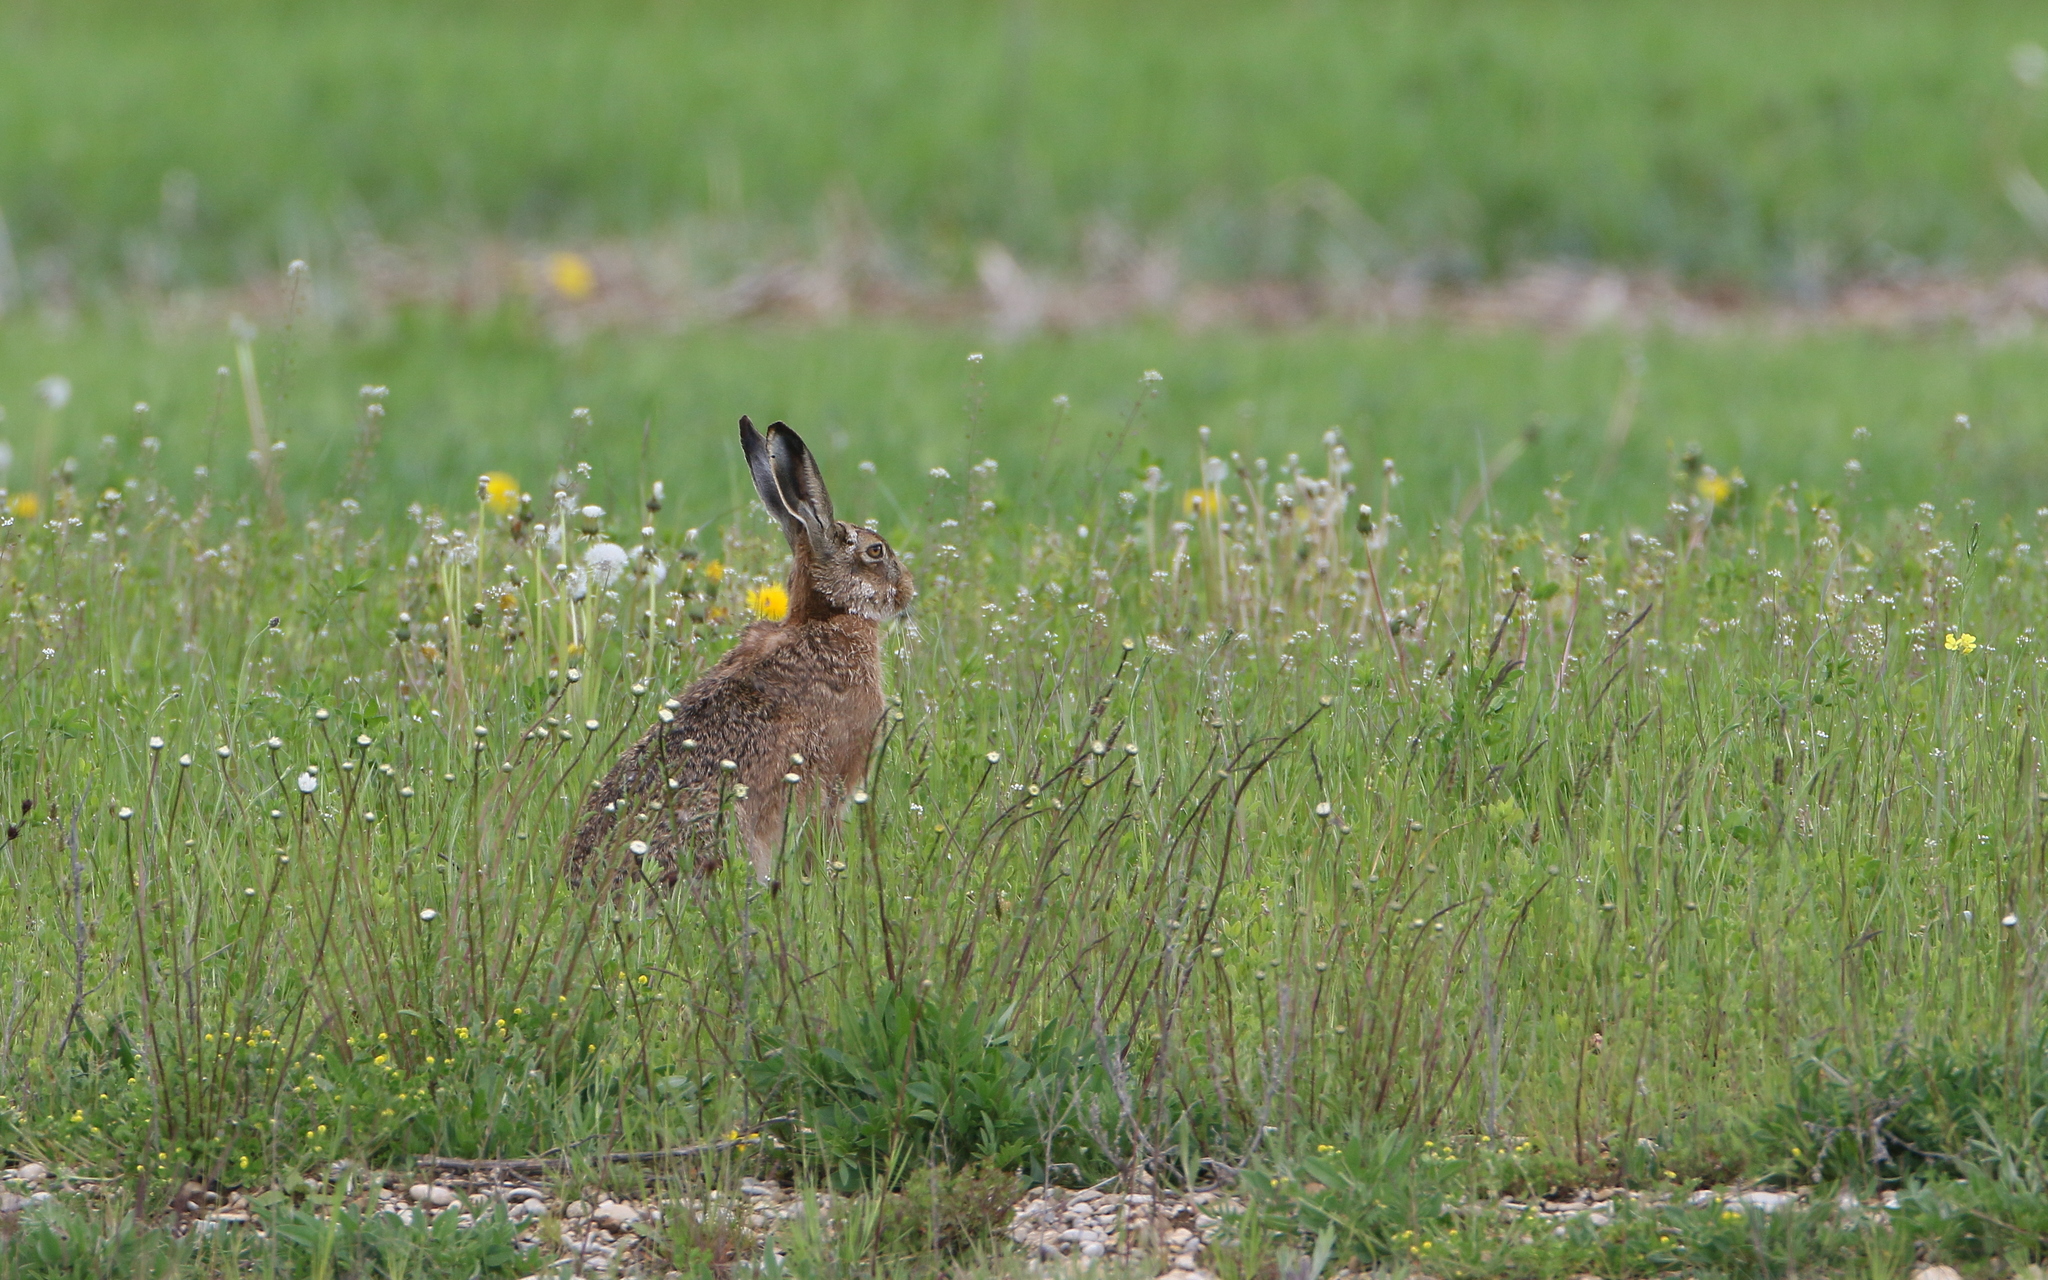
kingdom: Animalia
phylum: Chordata
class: Mammalia
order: Lagomorpha
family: Leporidae
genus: Lepus
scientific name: Lepus europaeus
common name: European hare
